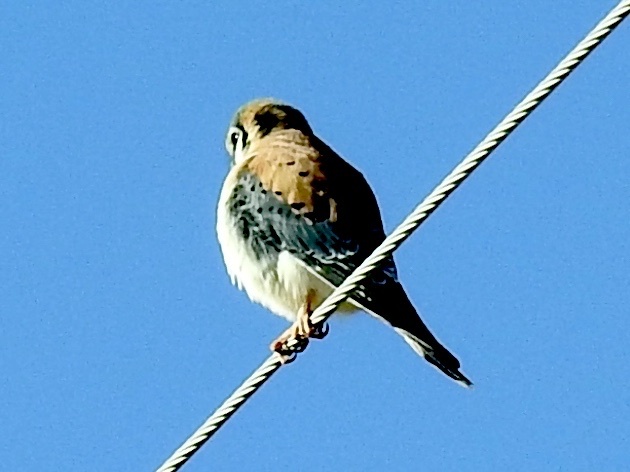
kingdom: Animalia
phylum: Chordata
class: Aves
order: Falconiformes
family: Falconidae
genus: Falco
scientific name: Falco sparverius
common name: American kestrel
